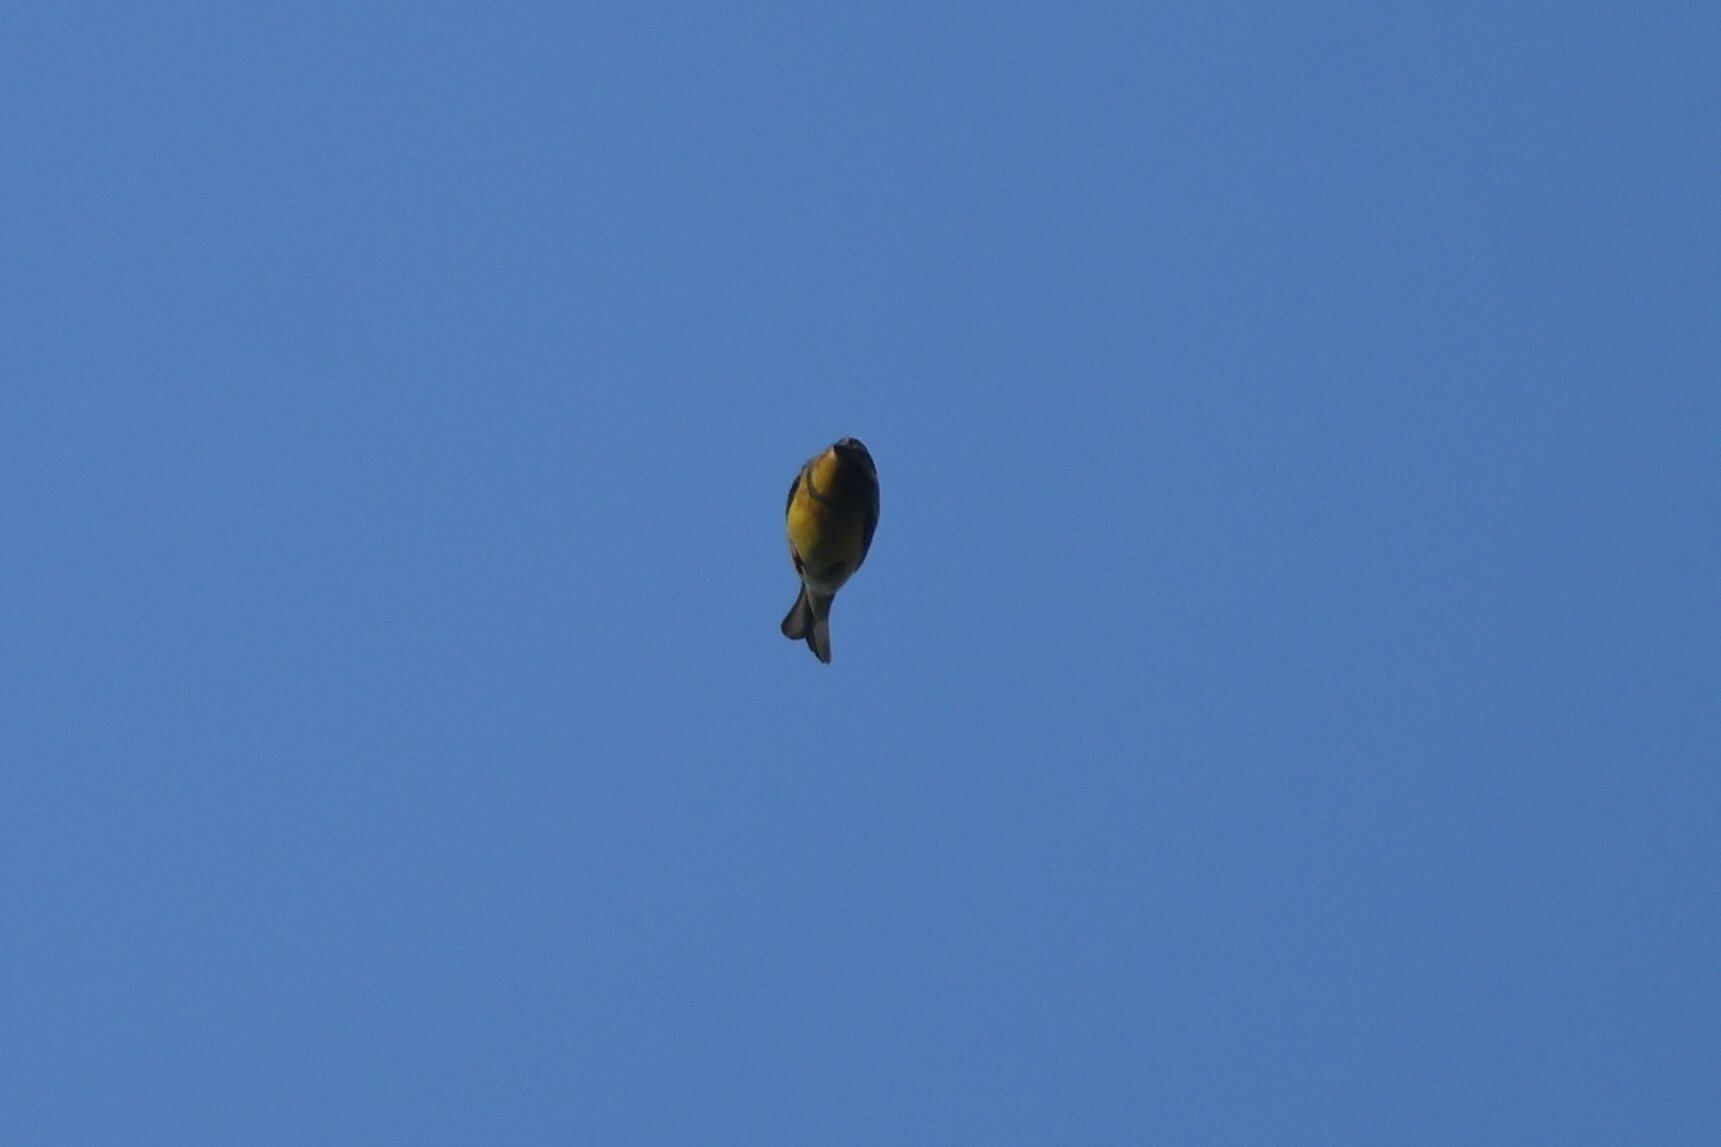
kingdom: Animalia
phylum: Chordata
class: Aves
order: Passeriformes
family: Emberizidae
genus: Emberiza
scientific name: Emberiza aureola
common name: Yellow-breasted bunting
